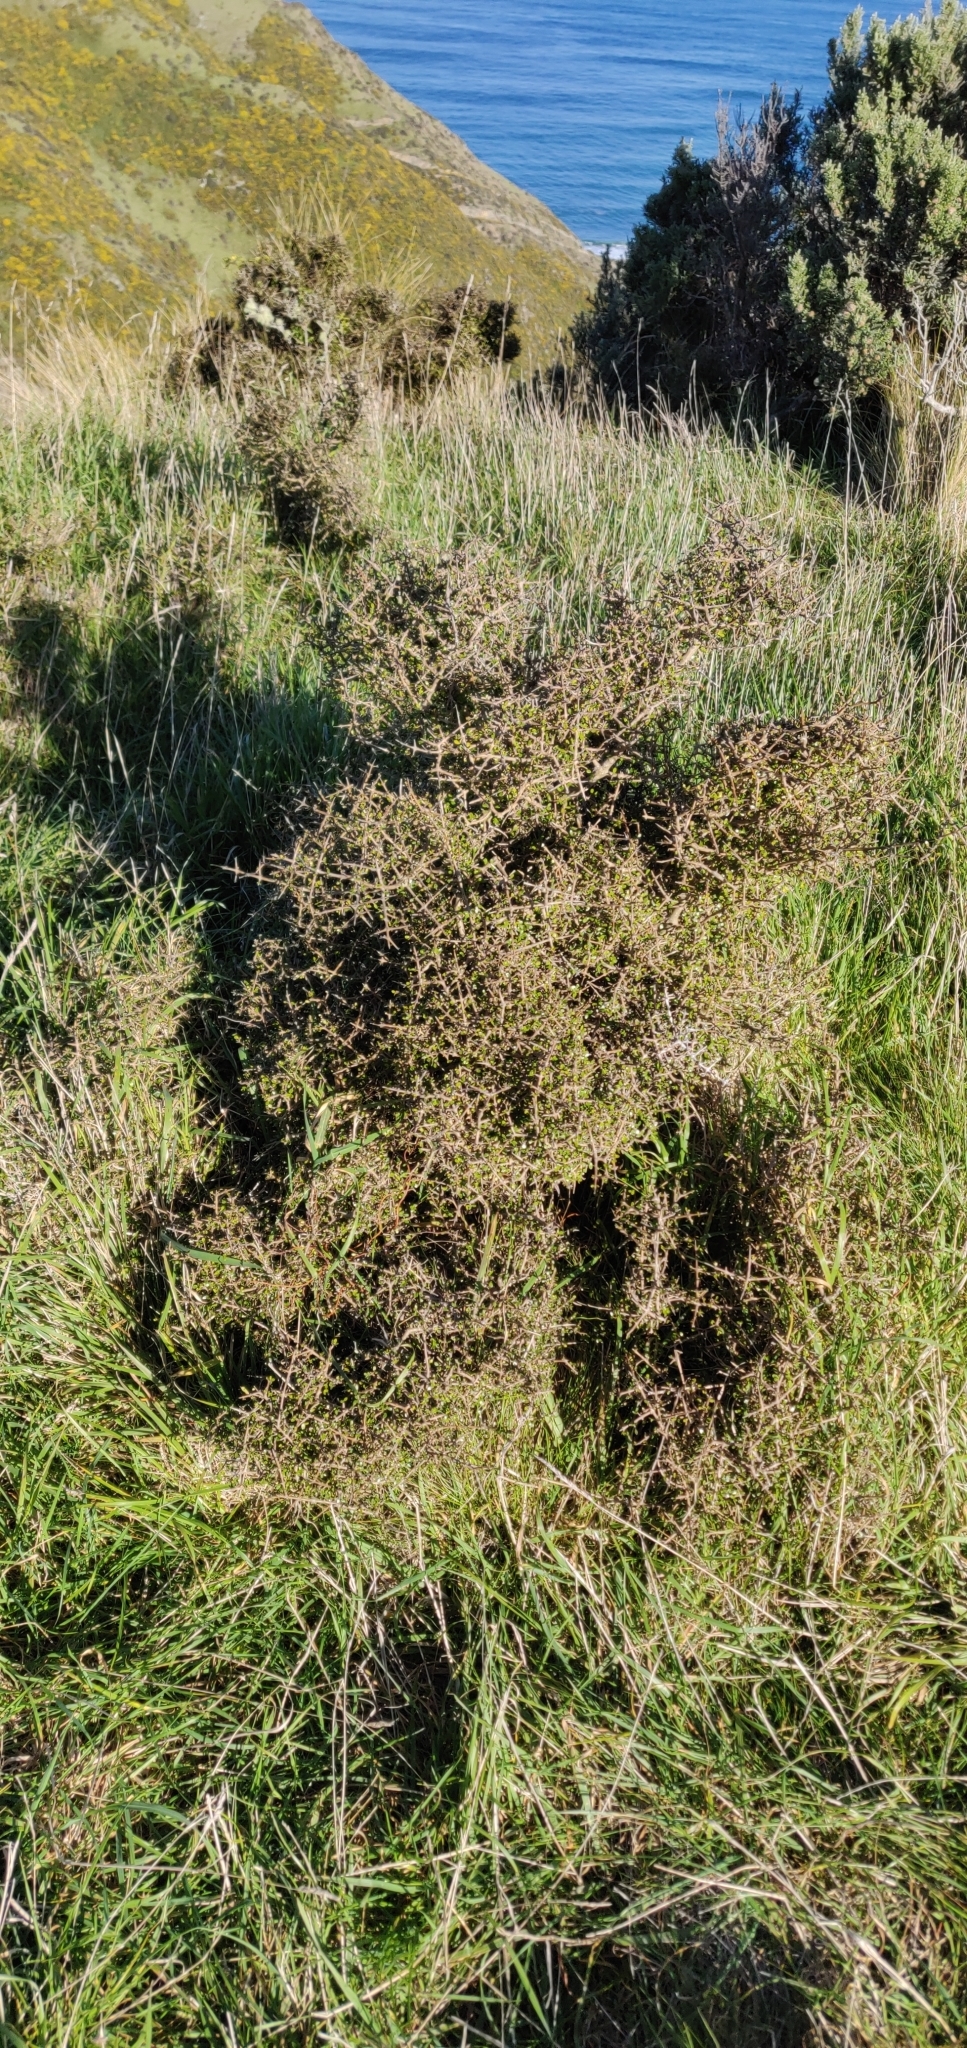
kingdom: Plantae
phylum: Tracheophyta
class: Magnoliopsida
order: Gentianales
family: Rubiaceae
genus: Coprosma
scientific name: Coprosma propinqua
